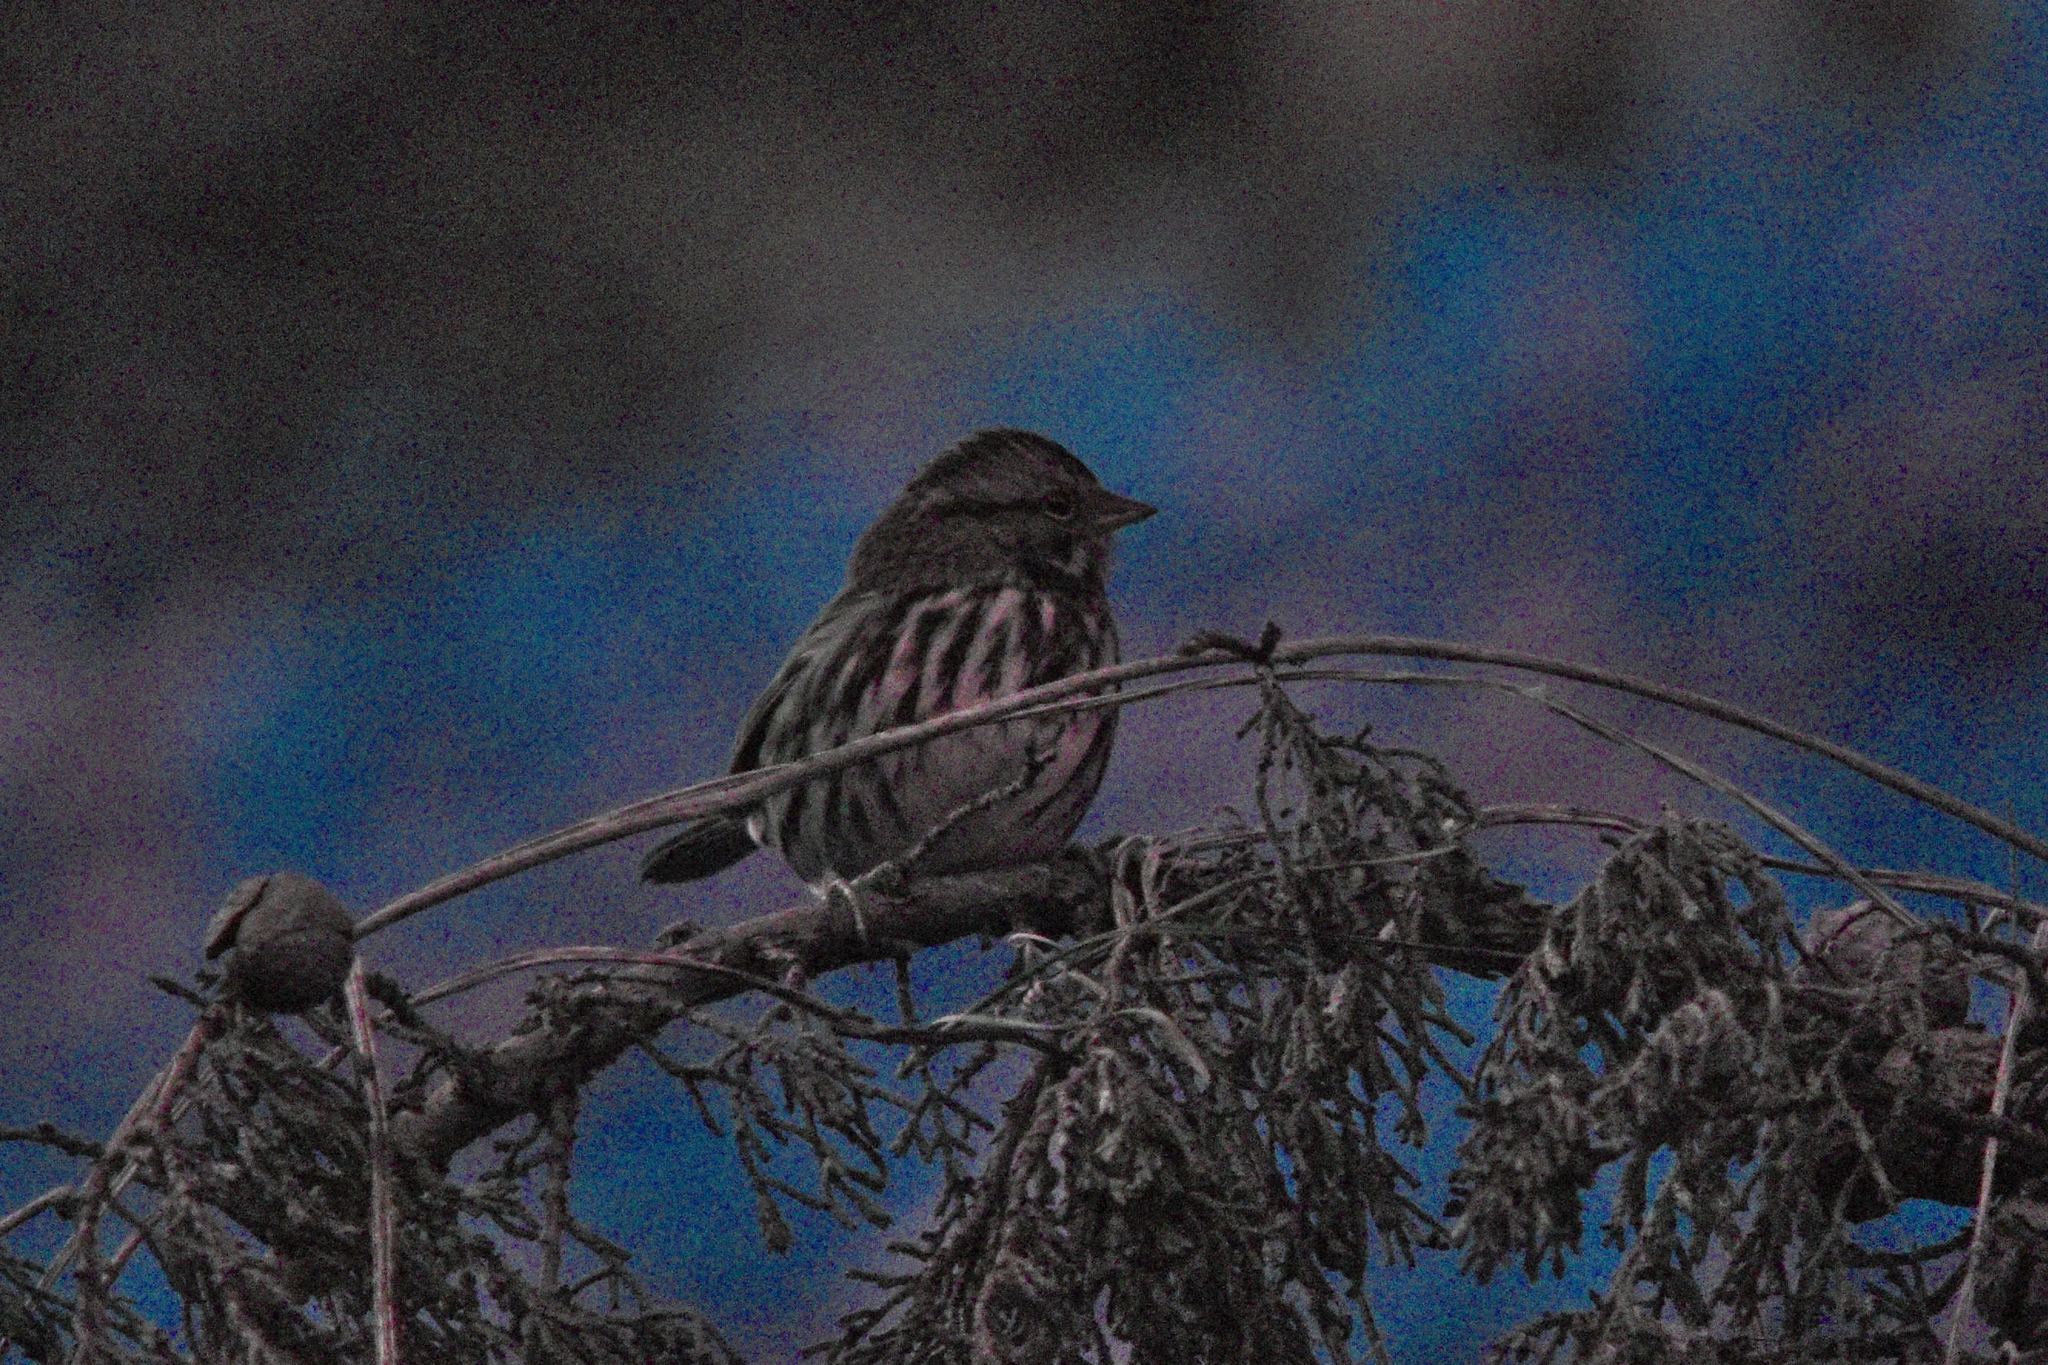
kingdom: Animalia
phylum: Chordata
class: Aves
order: Passeriformes
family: Passerellidae
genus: Melospiza
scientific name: Melospiza melodia
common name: Song sparrow
